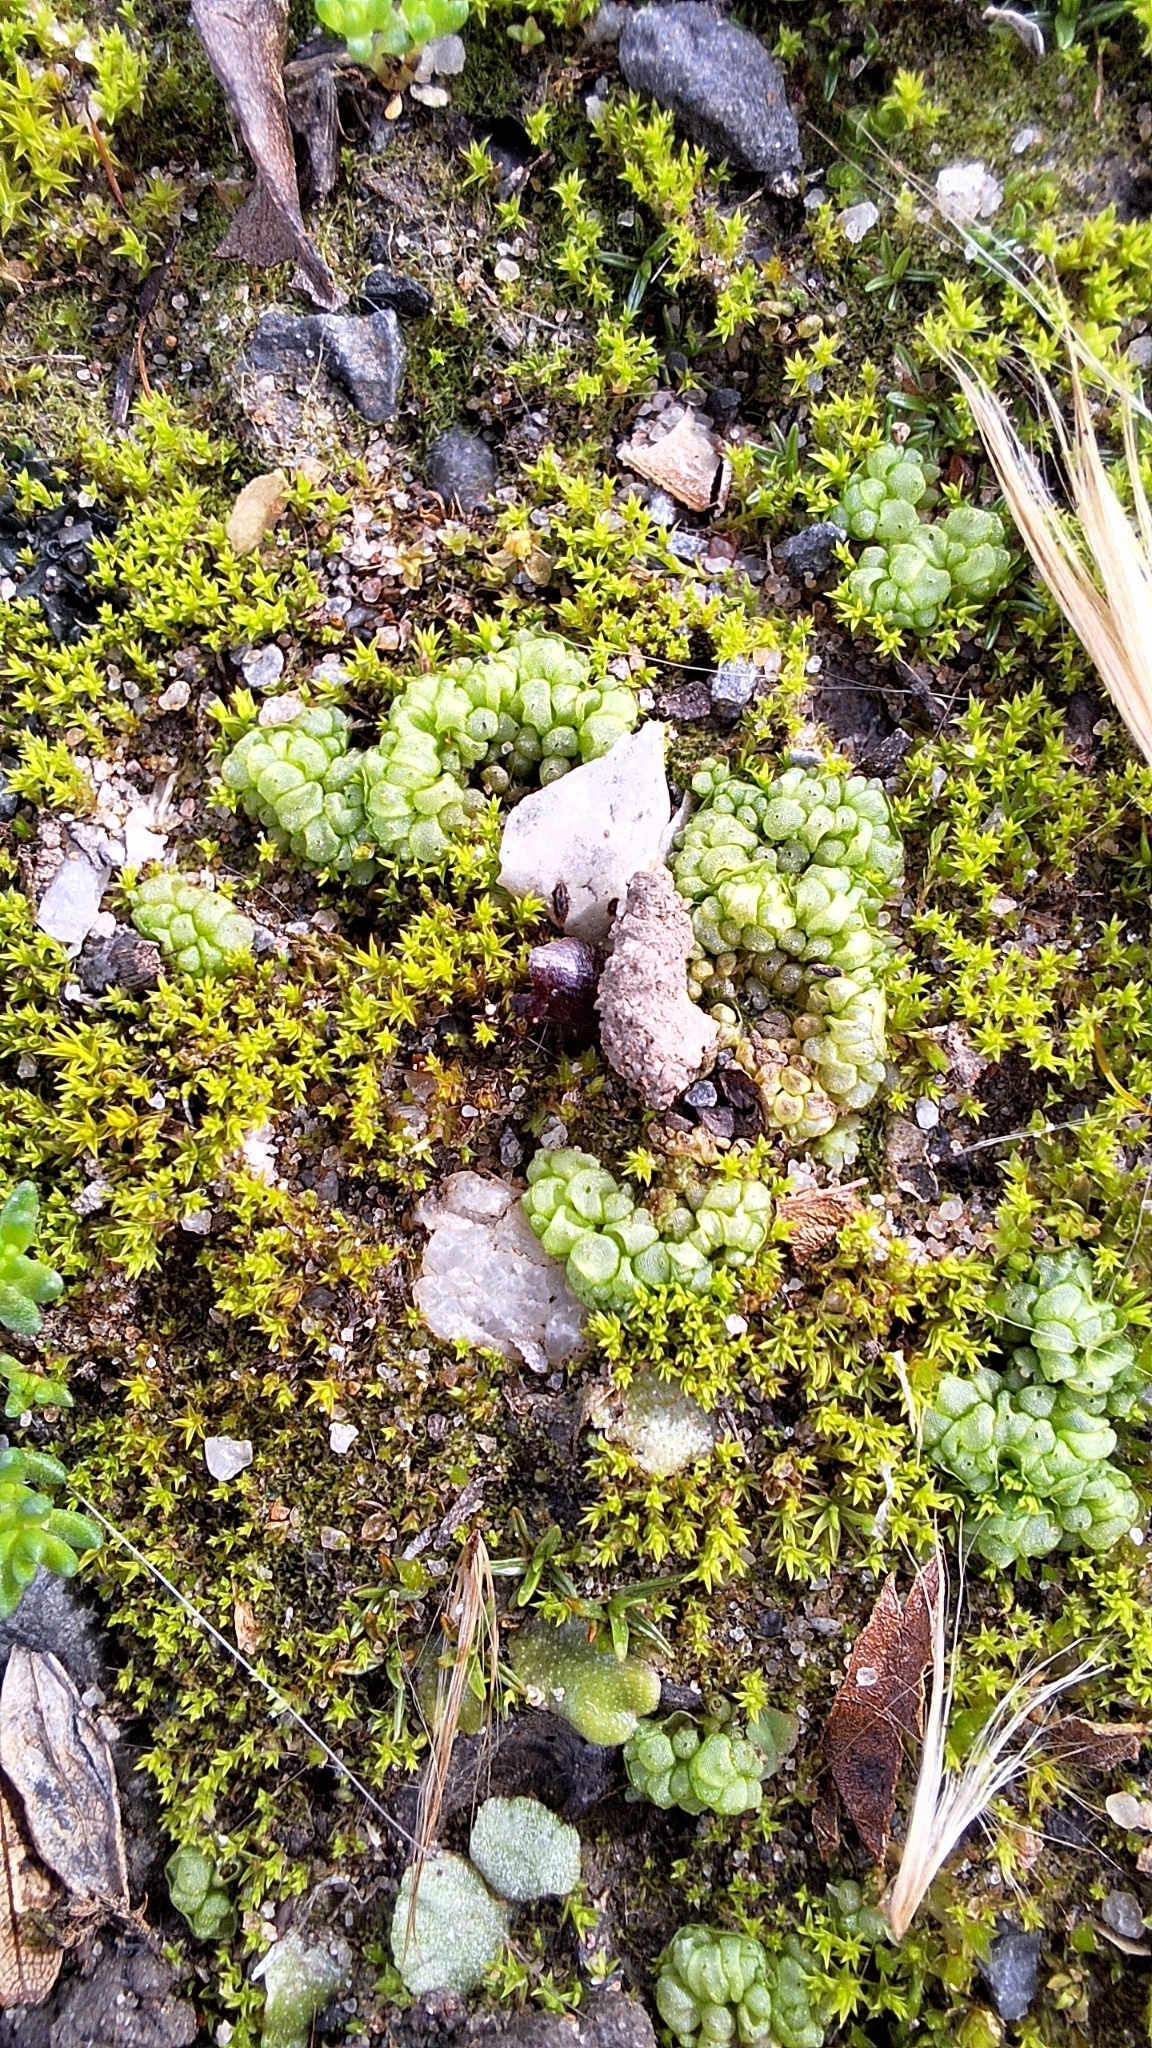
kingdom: Plantae
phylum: Marchantiophyta
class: Marchantiopsida
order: Sphaerocarpales
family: Sphaerocarpaceae
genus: Sphaerocarpos
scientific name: Sphaerocarpos texanus
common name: Texas balloonwort
